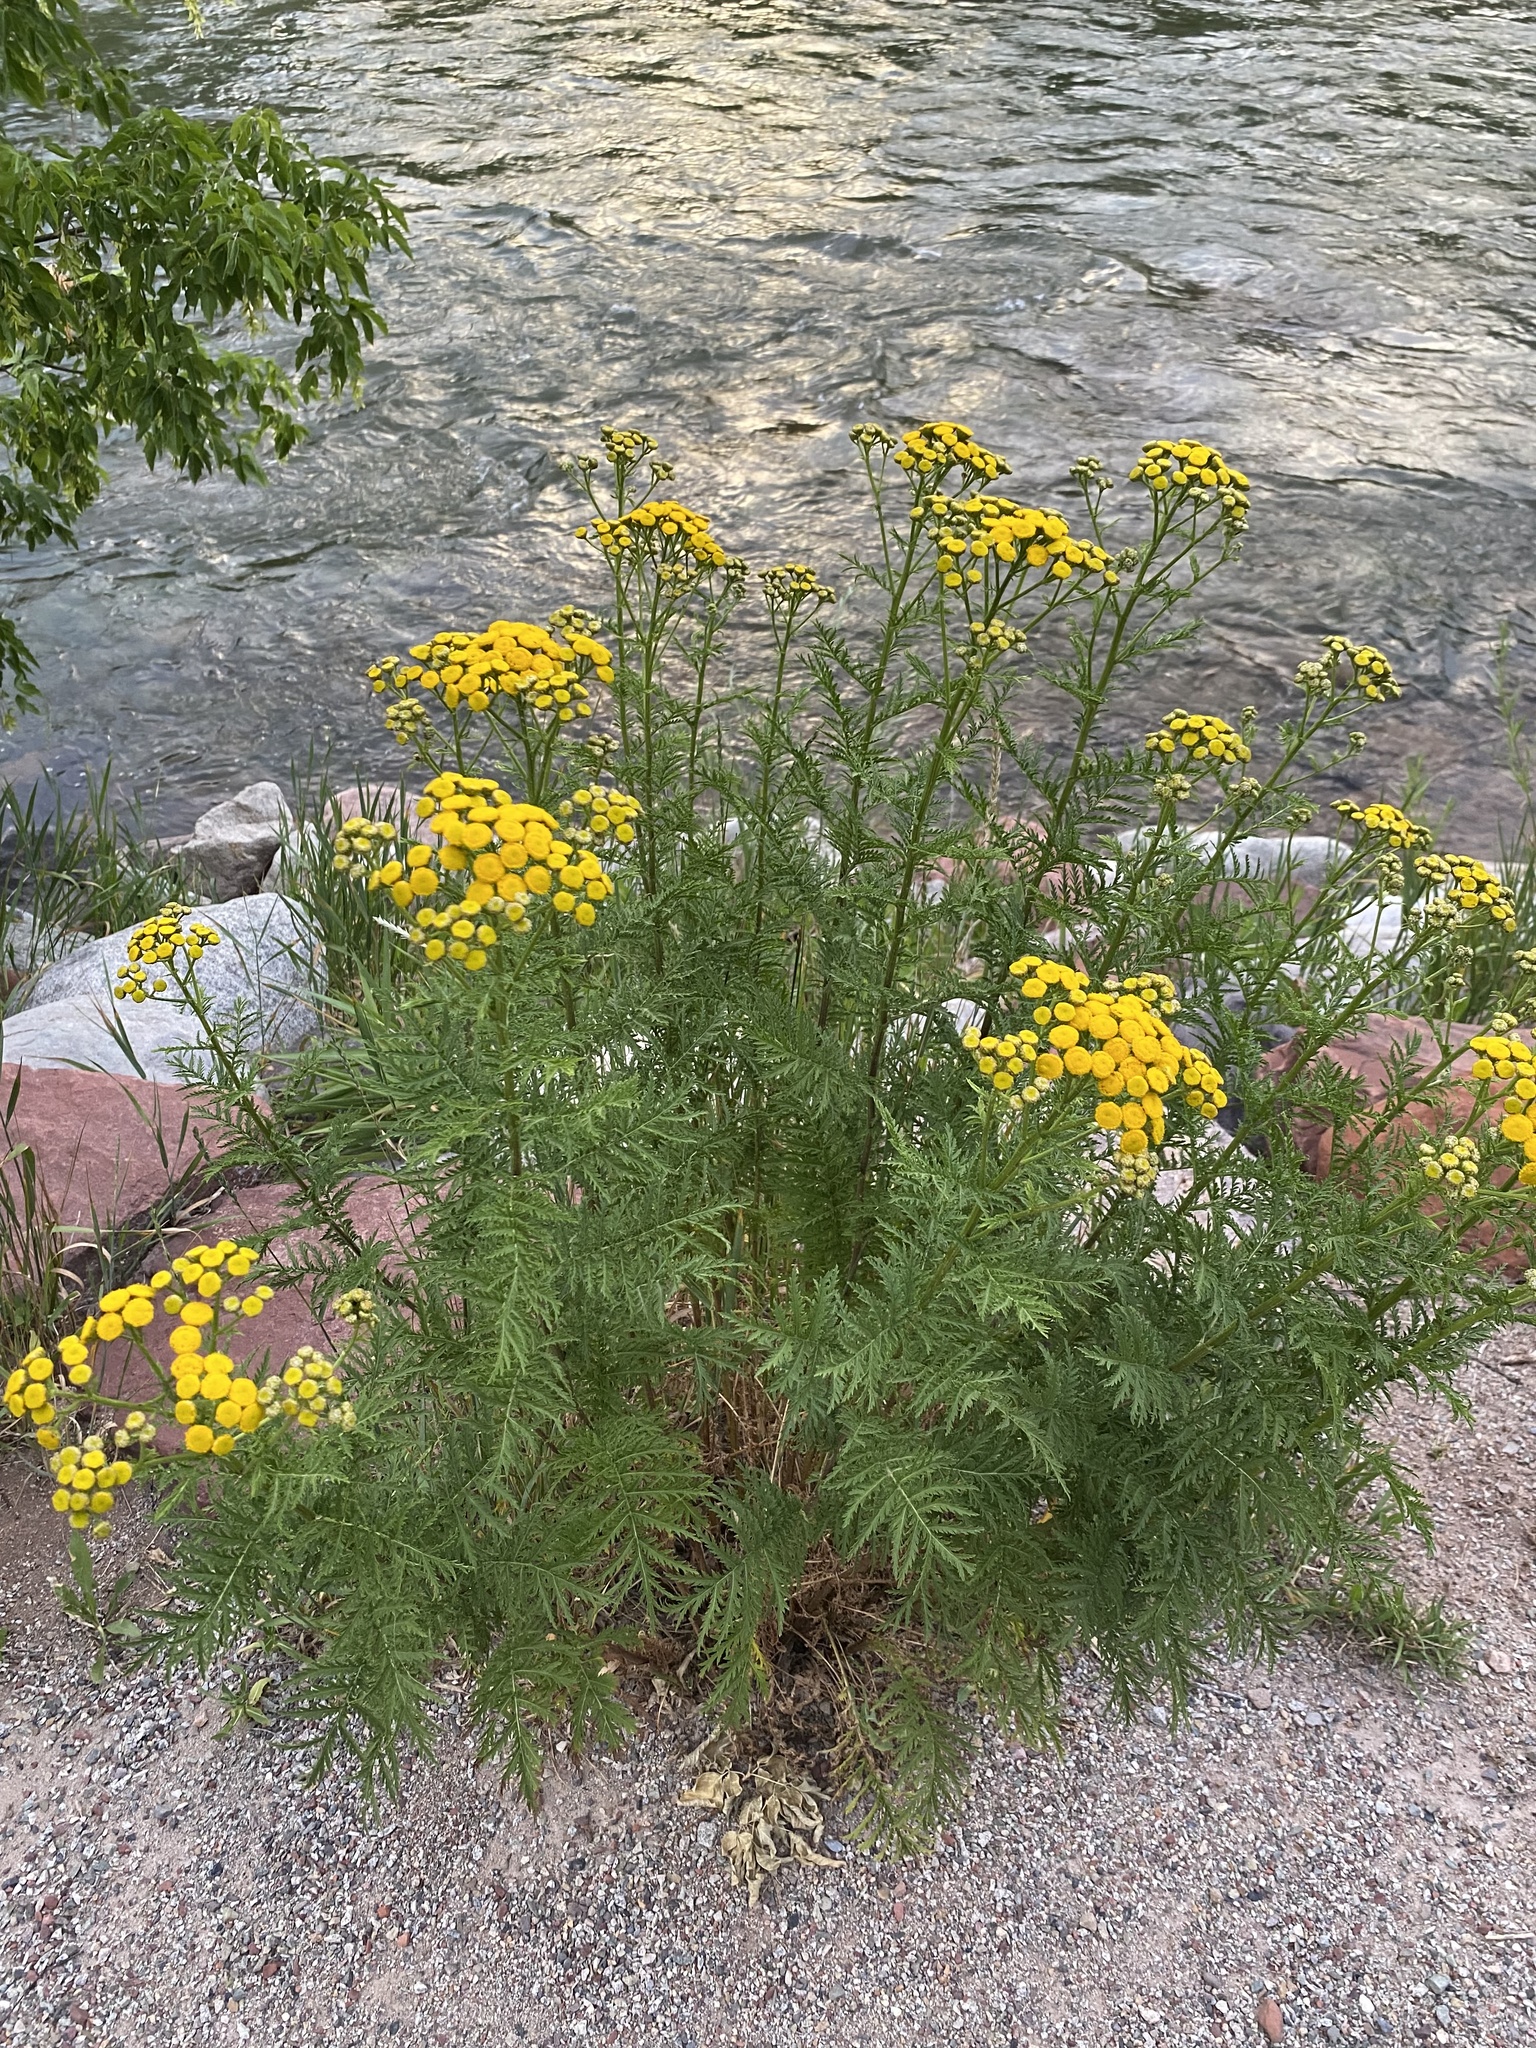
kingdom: Plantae
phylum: Tracheophyta
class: Magnoliopsida
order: Asterales
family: Asteraceae
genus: Tanacetum
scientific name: Tanacetum vulgare
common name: Common tansy
